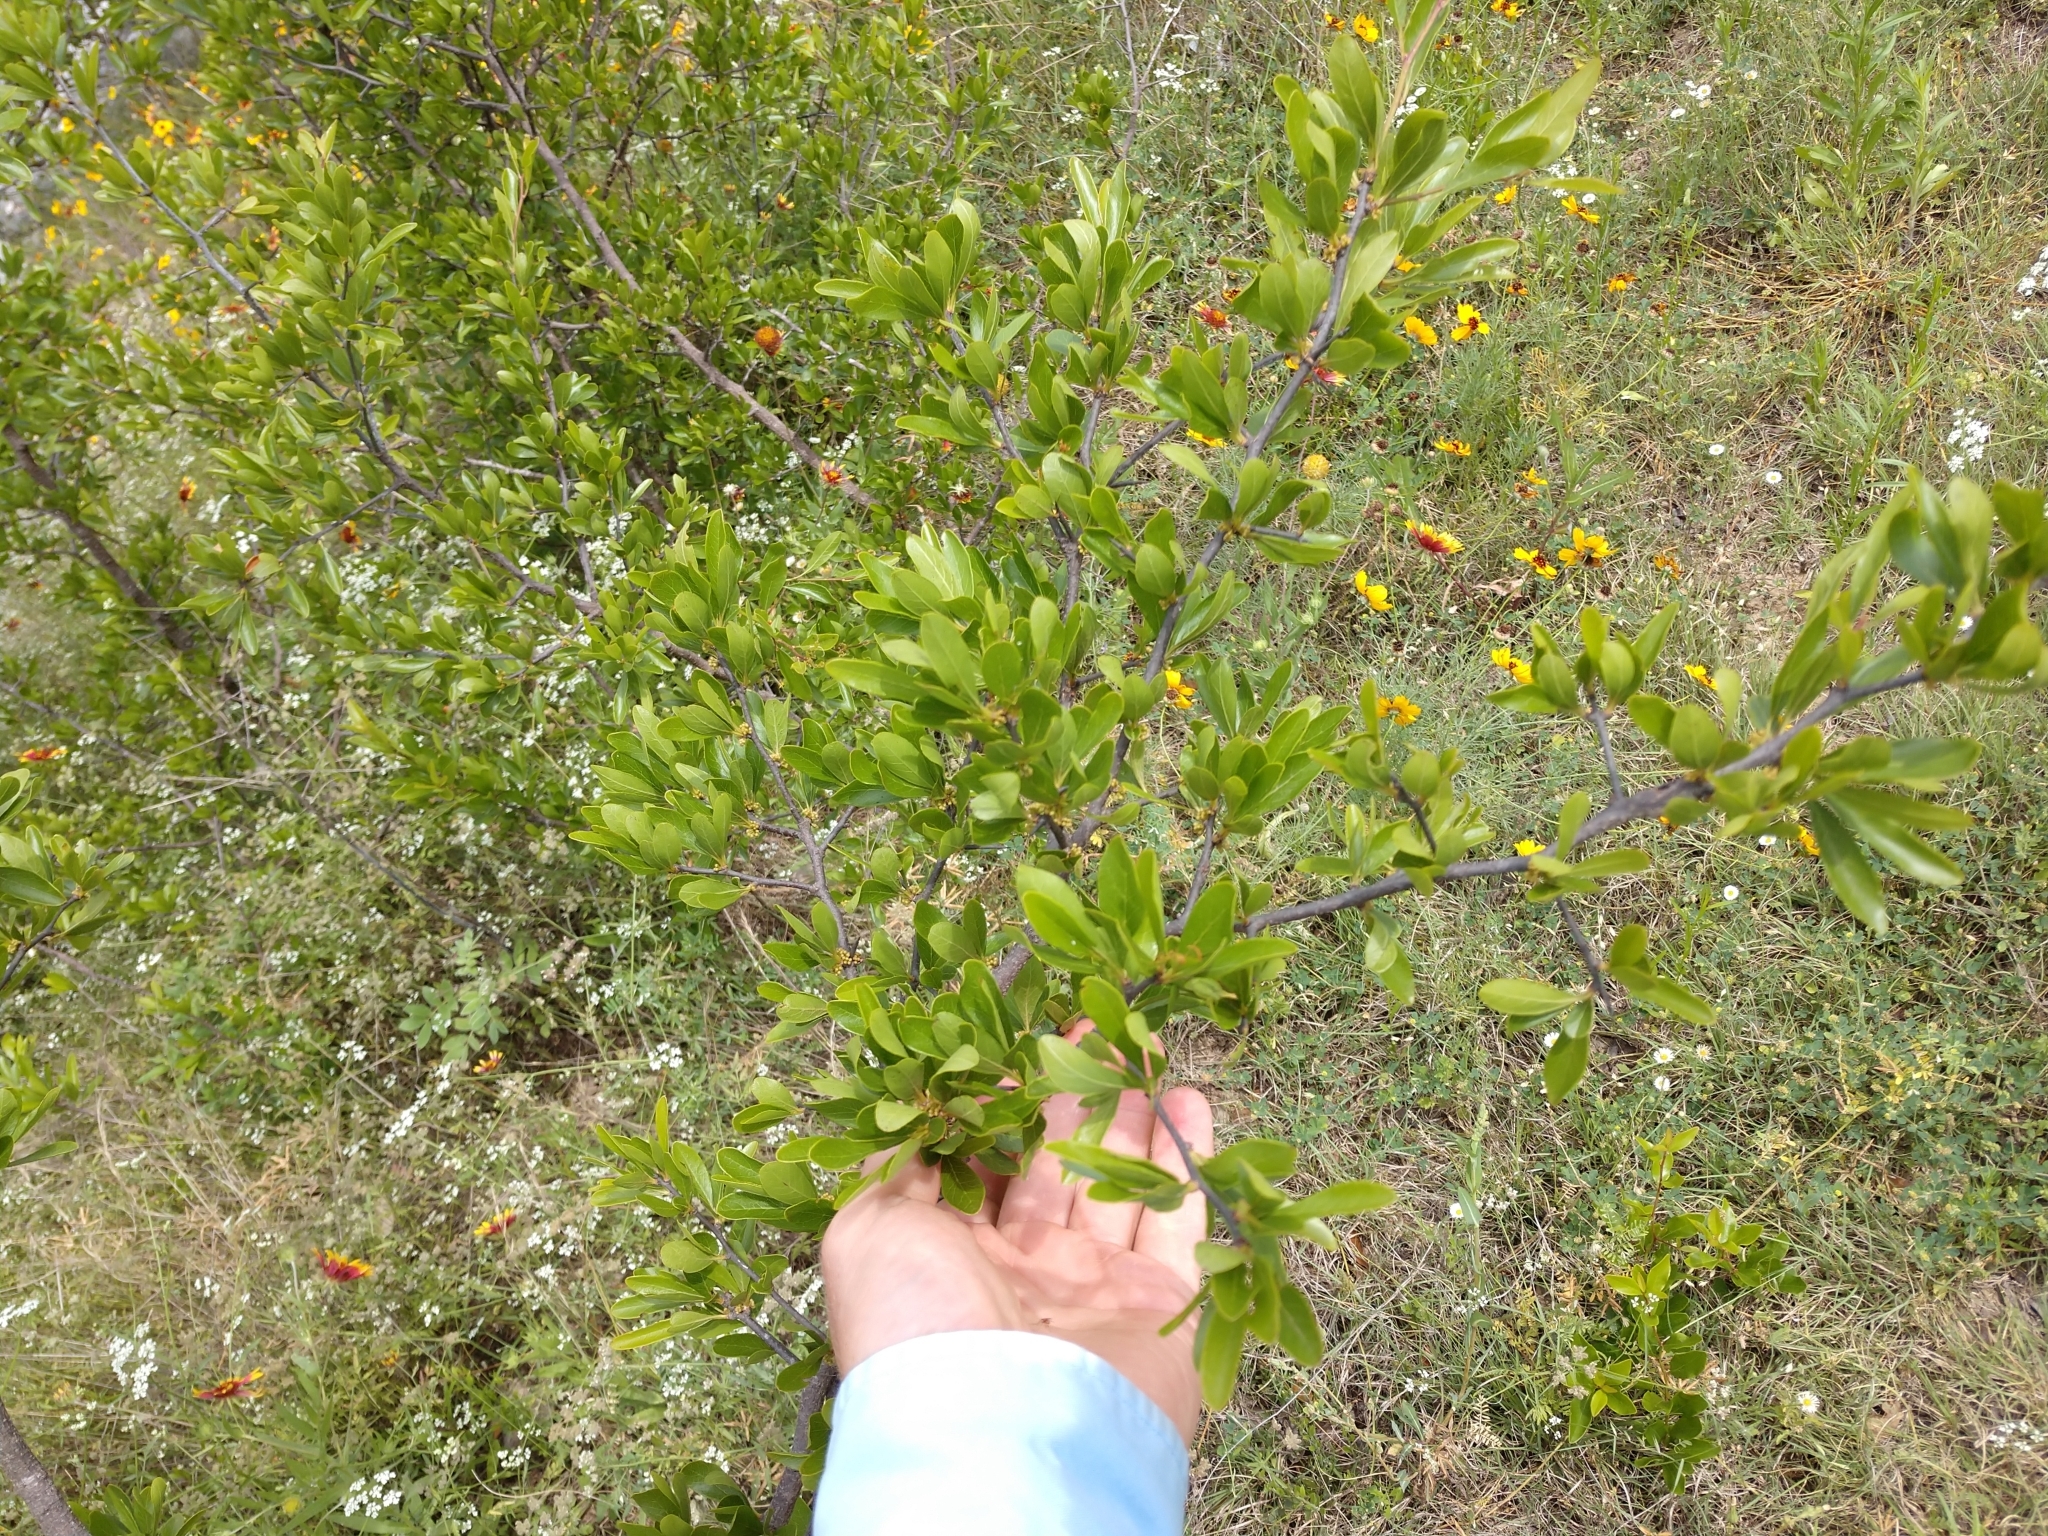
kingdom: Plantae
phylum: Tracheophyta
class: Magnoliopsida
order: Ericales
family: Sapotaceae
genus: Sideroxylon
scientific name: Sideroxylon lanuginosum
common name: Chittamwood
